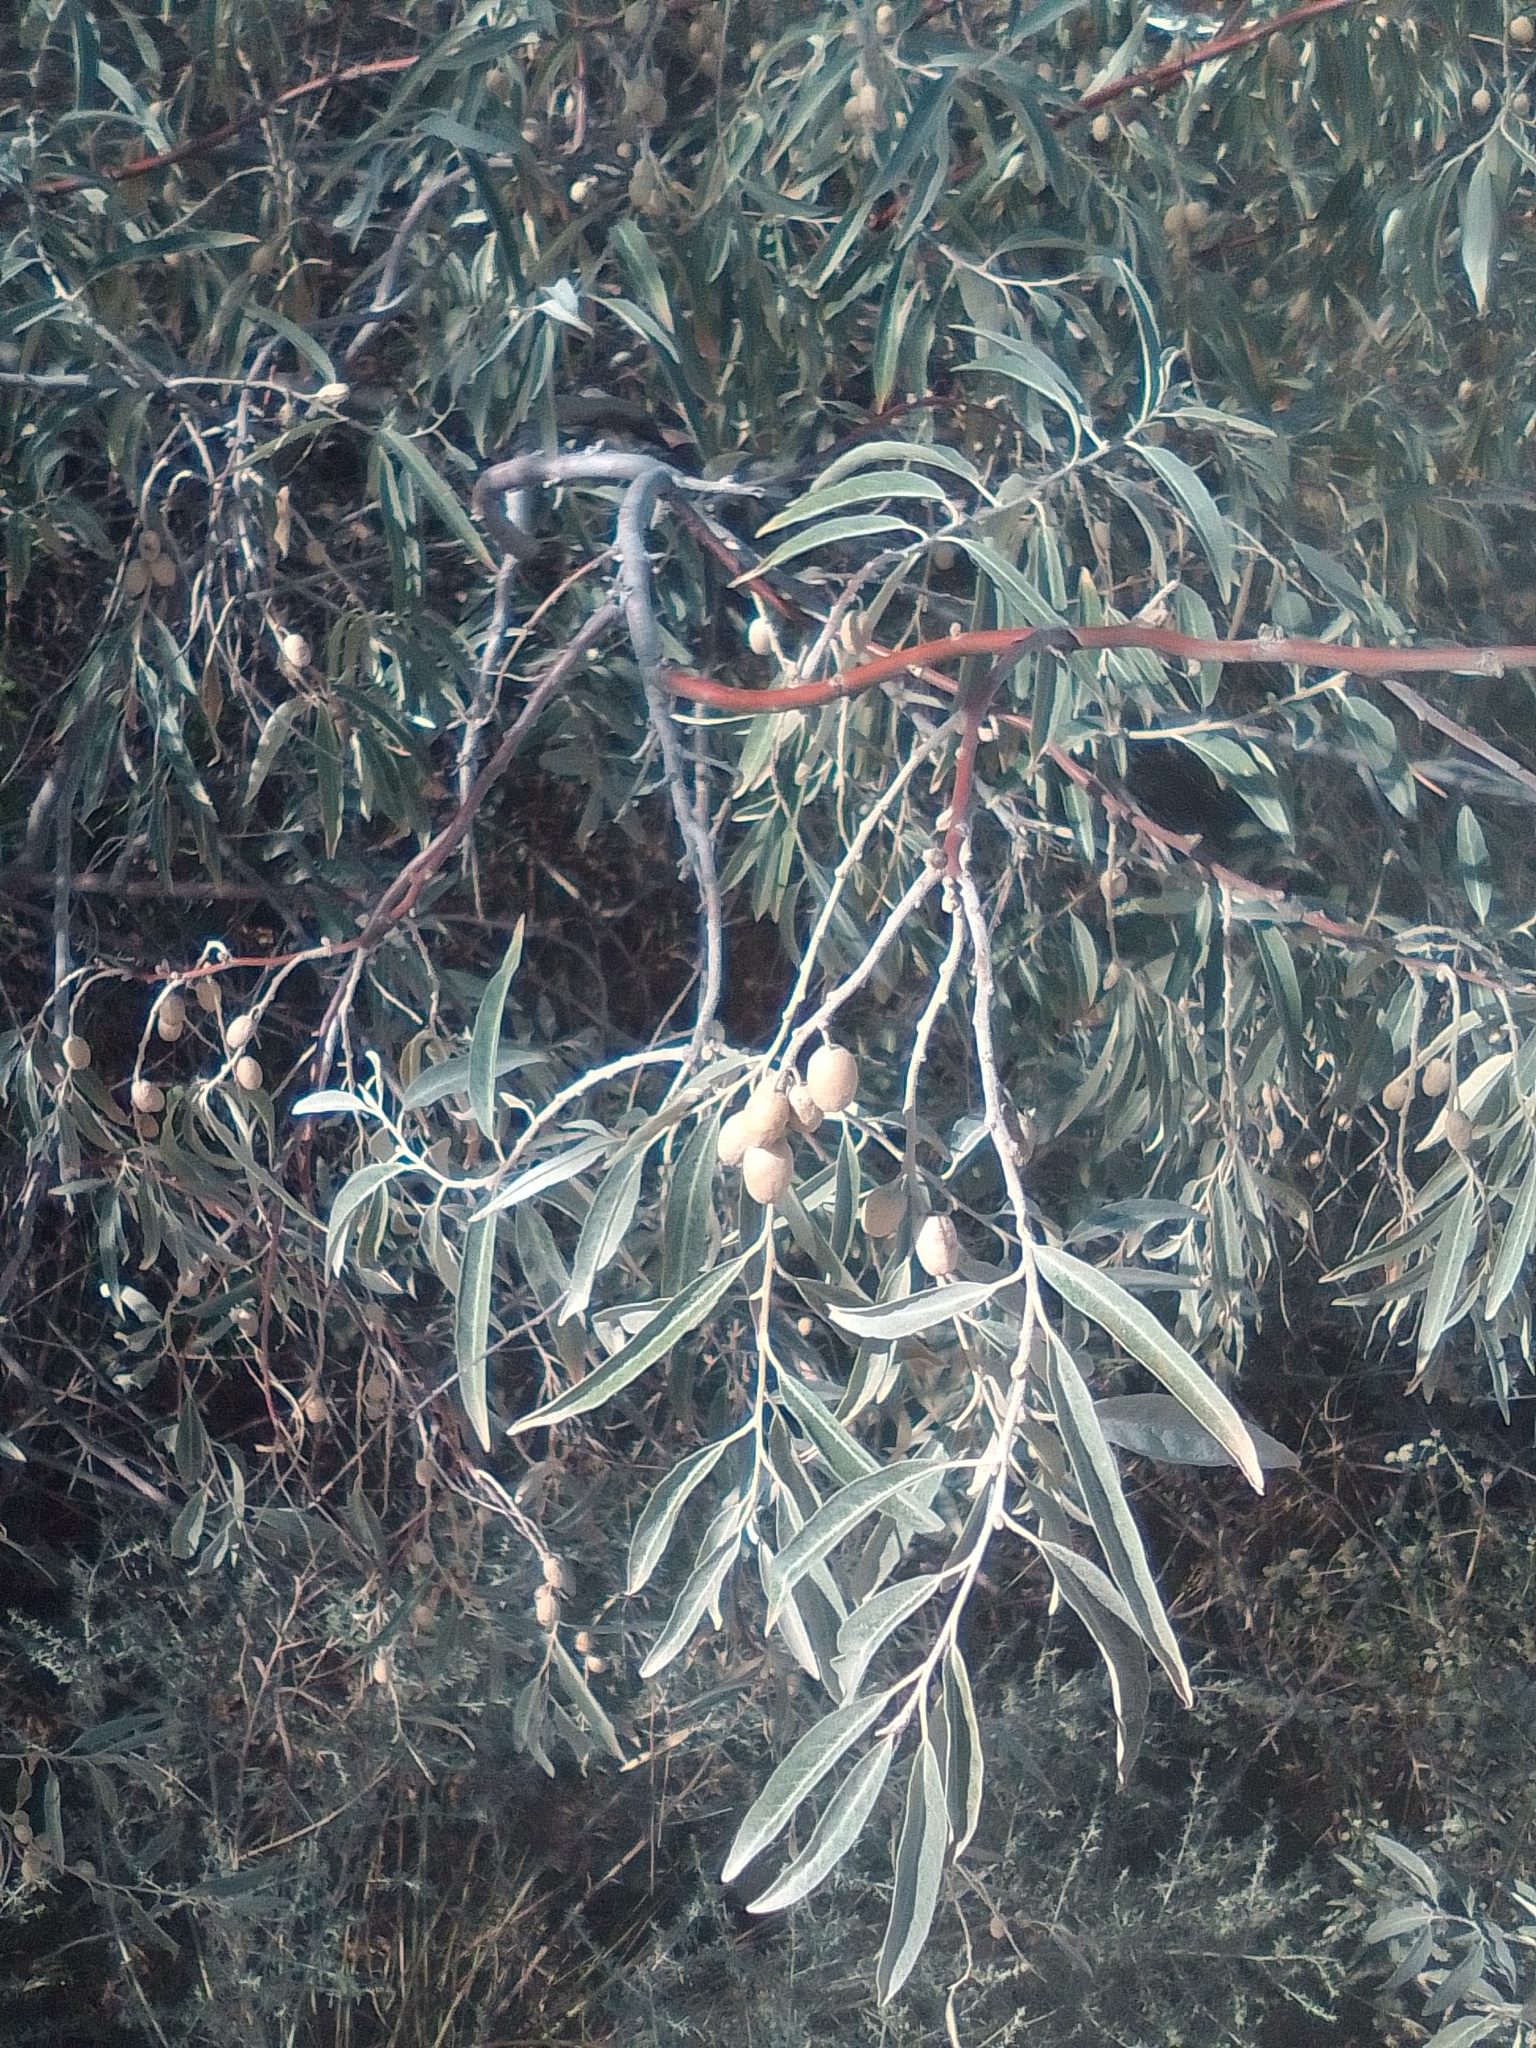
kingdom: Plantae
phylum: Tracheophyta
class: Magnoliopsida
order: Rosales
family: Elaeagnaceae
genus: Elaeagnus
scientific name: Elaeagnus angustifolia
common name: Russian olive
